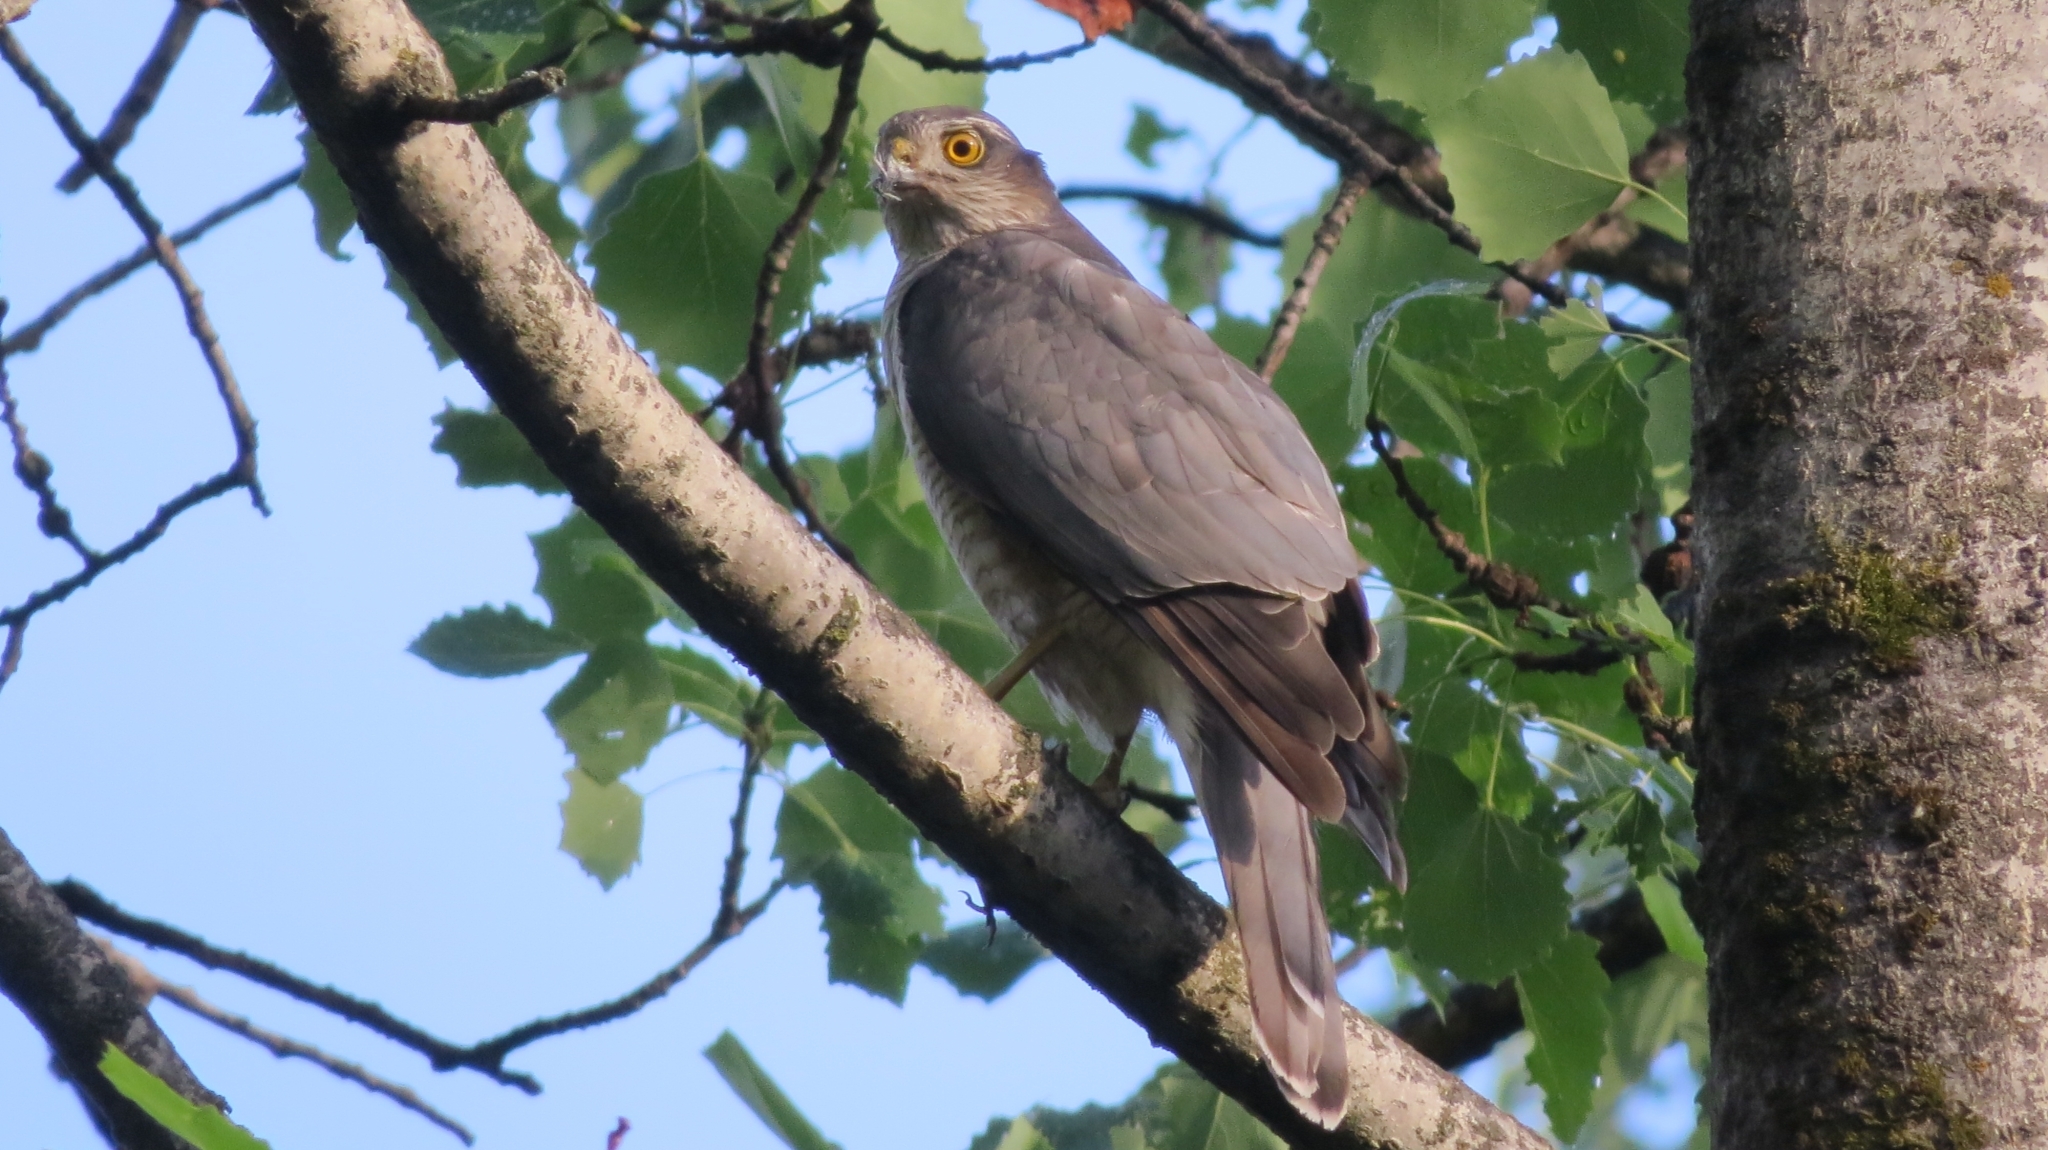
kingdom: Animalia
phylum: Chordata
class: Aves
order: Accipitriformes
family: Accipitridae
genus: Accipiter
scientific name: Accipiter nisus
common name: Eurasian sparrowhawk
